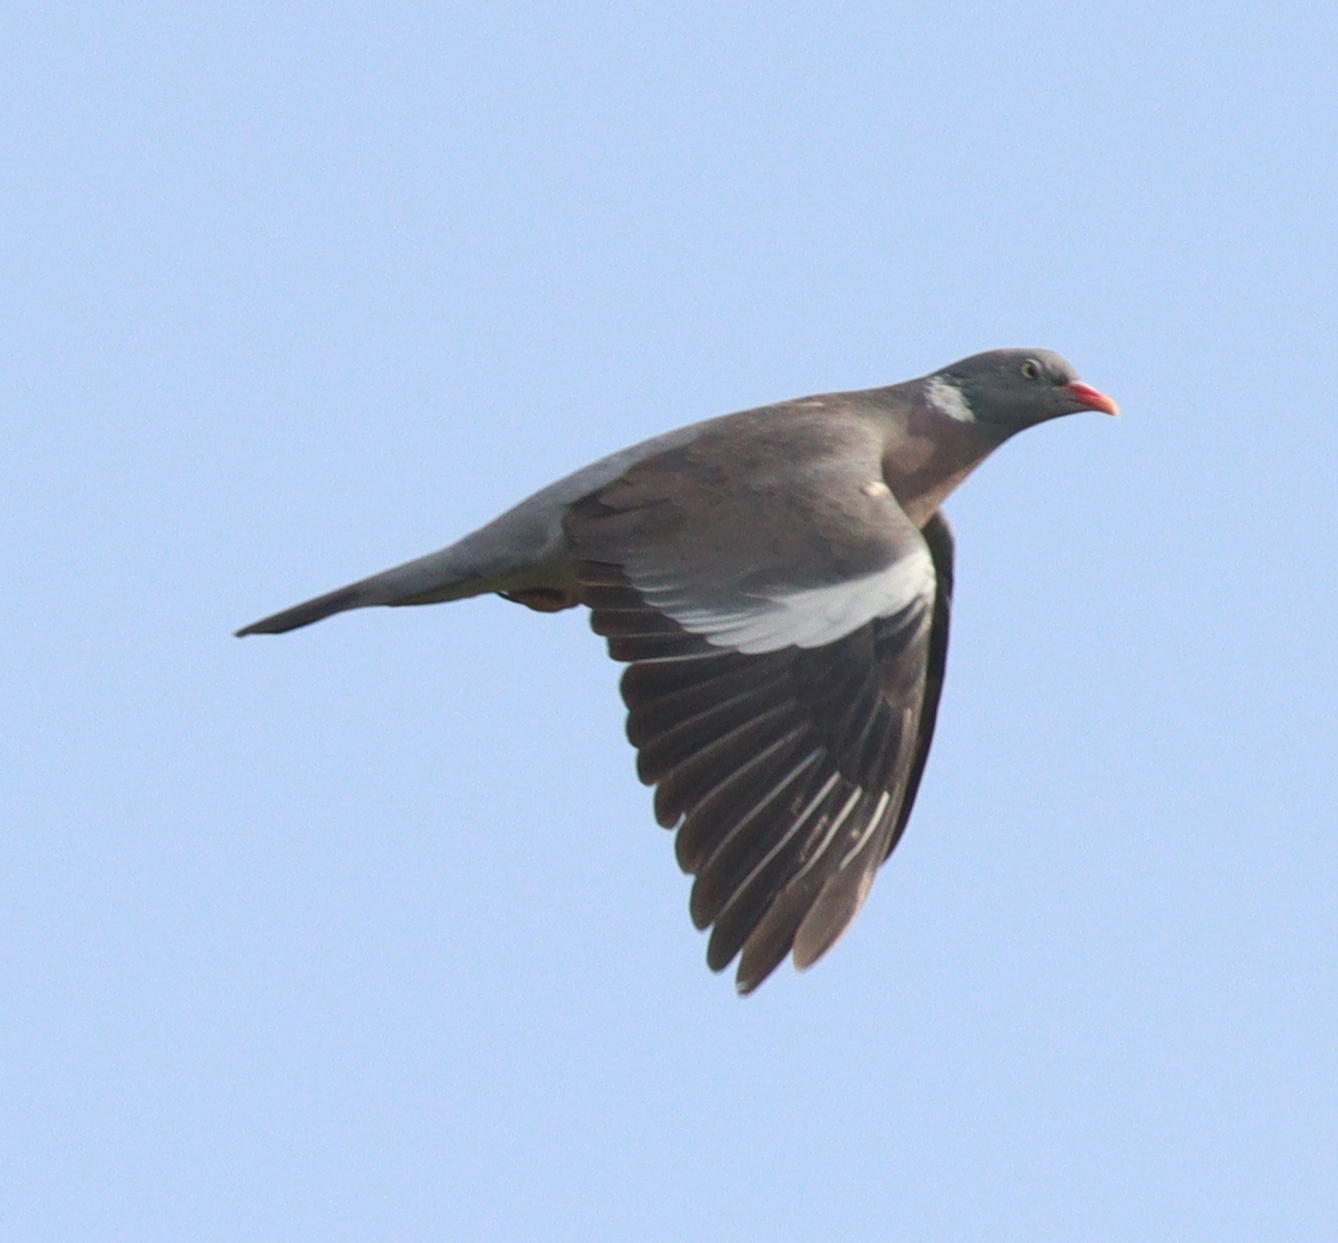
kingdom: Animalia
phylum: Chordata
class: Aves
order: Columbiformes
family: Columbidae
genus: Columba
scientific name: Columba palumbus
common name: Common wood pigeon
